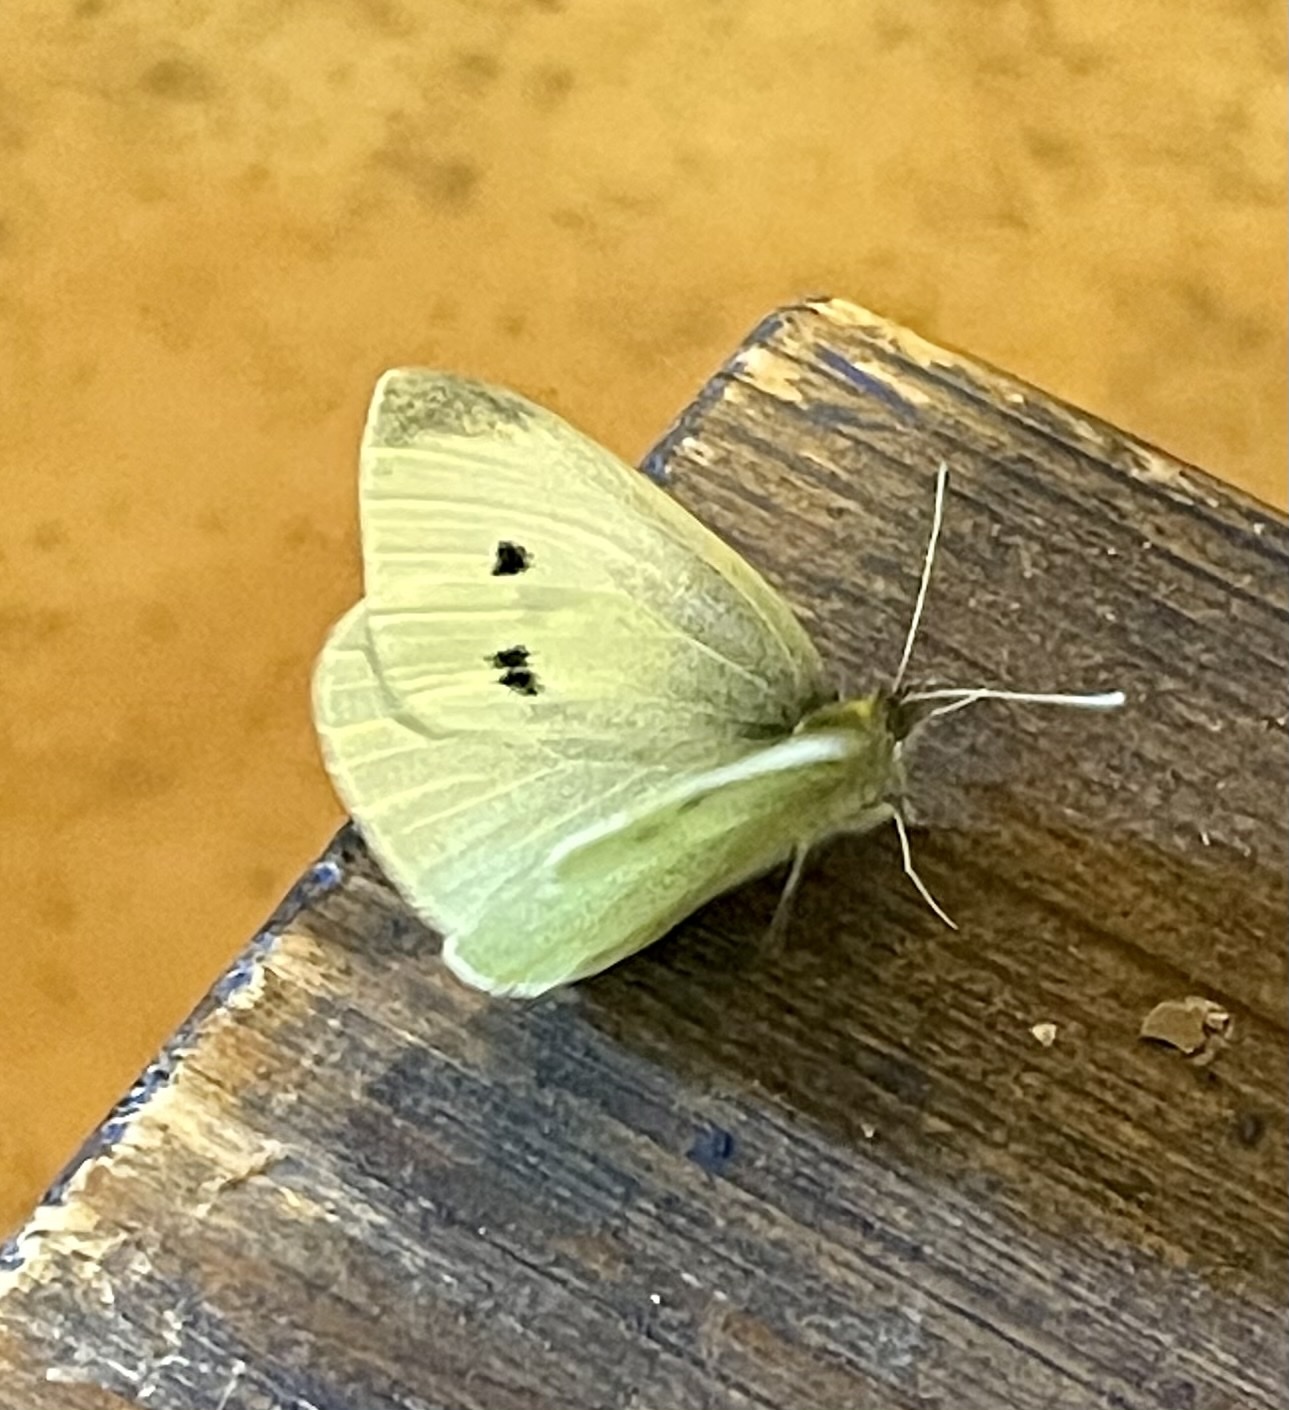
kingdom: Animalia
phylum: Arthropoda
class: Insecta
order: Lepidoptera
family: Pieridae
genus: Pieris
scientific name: Pieris rapae
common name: Small white
